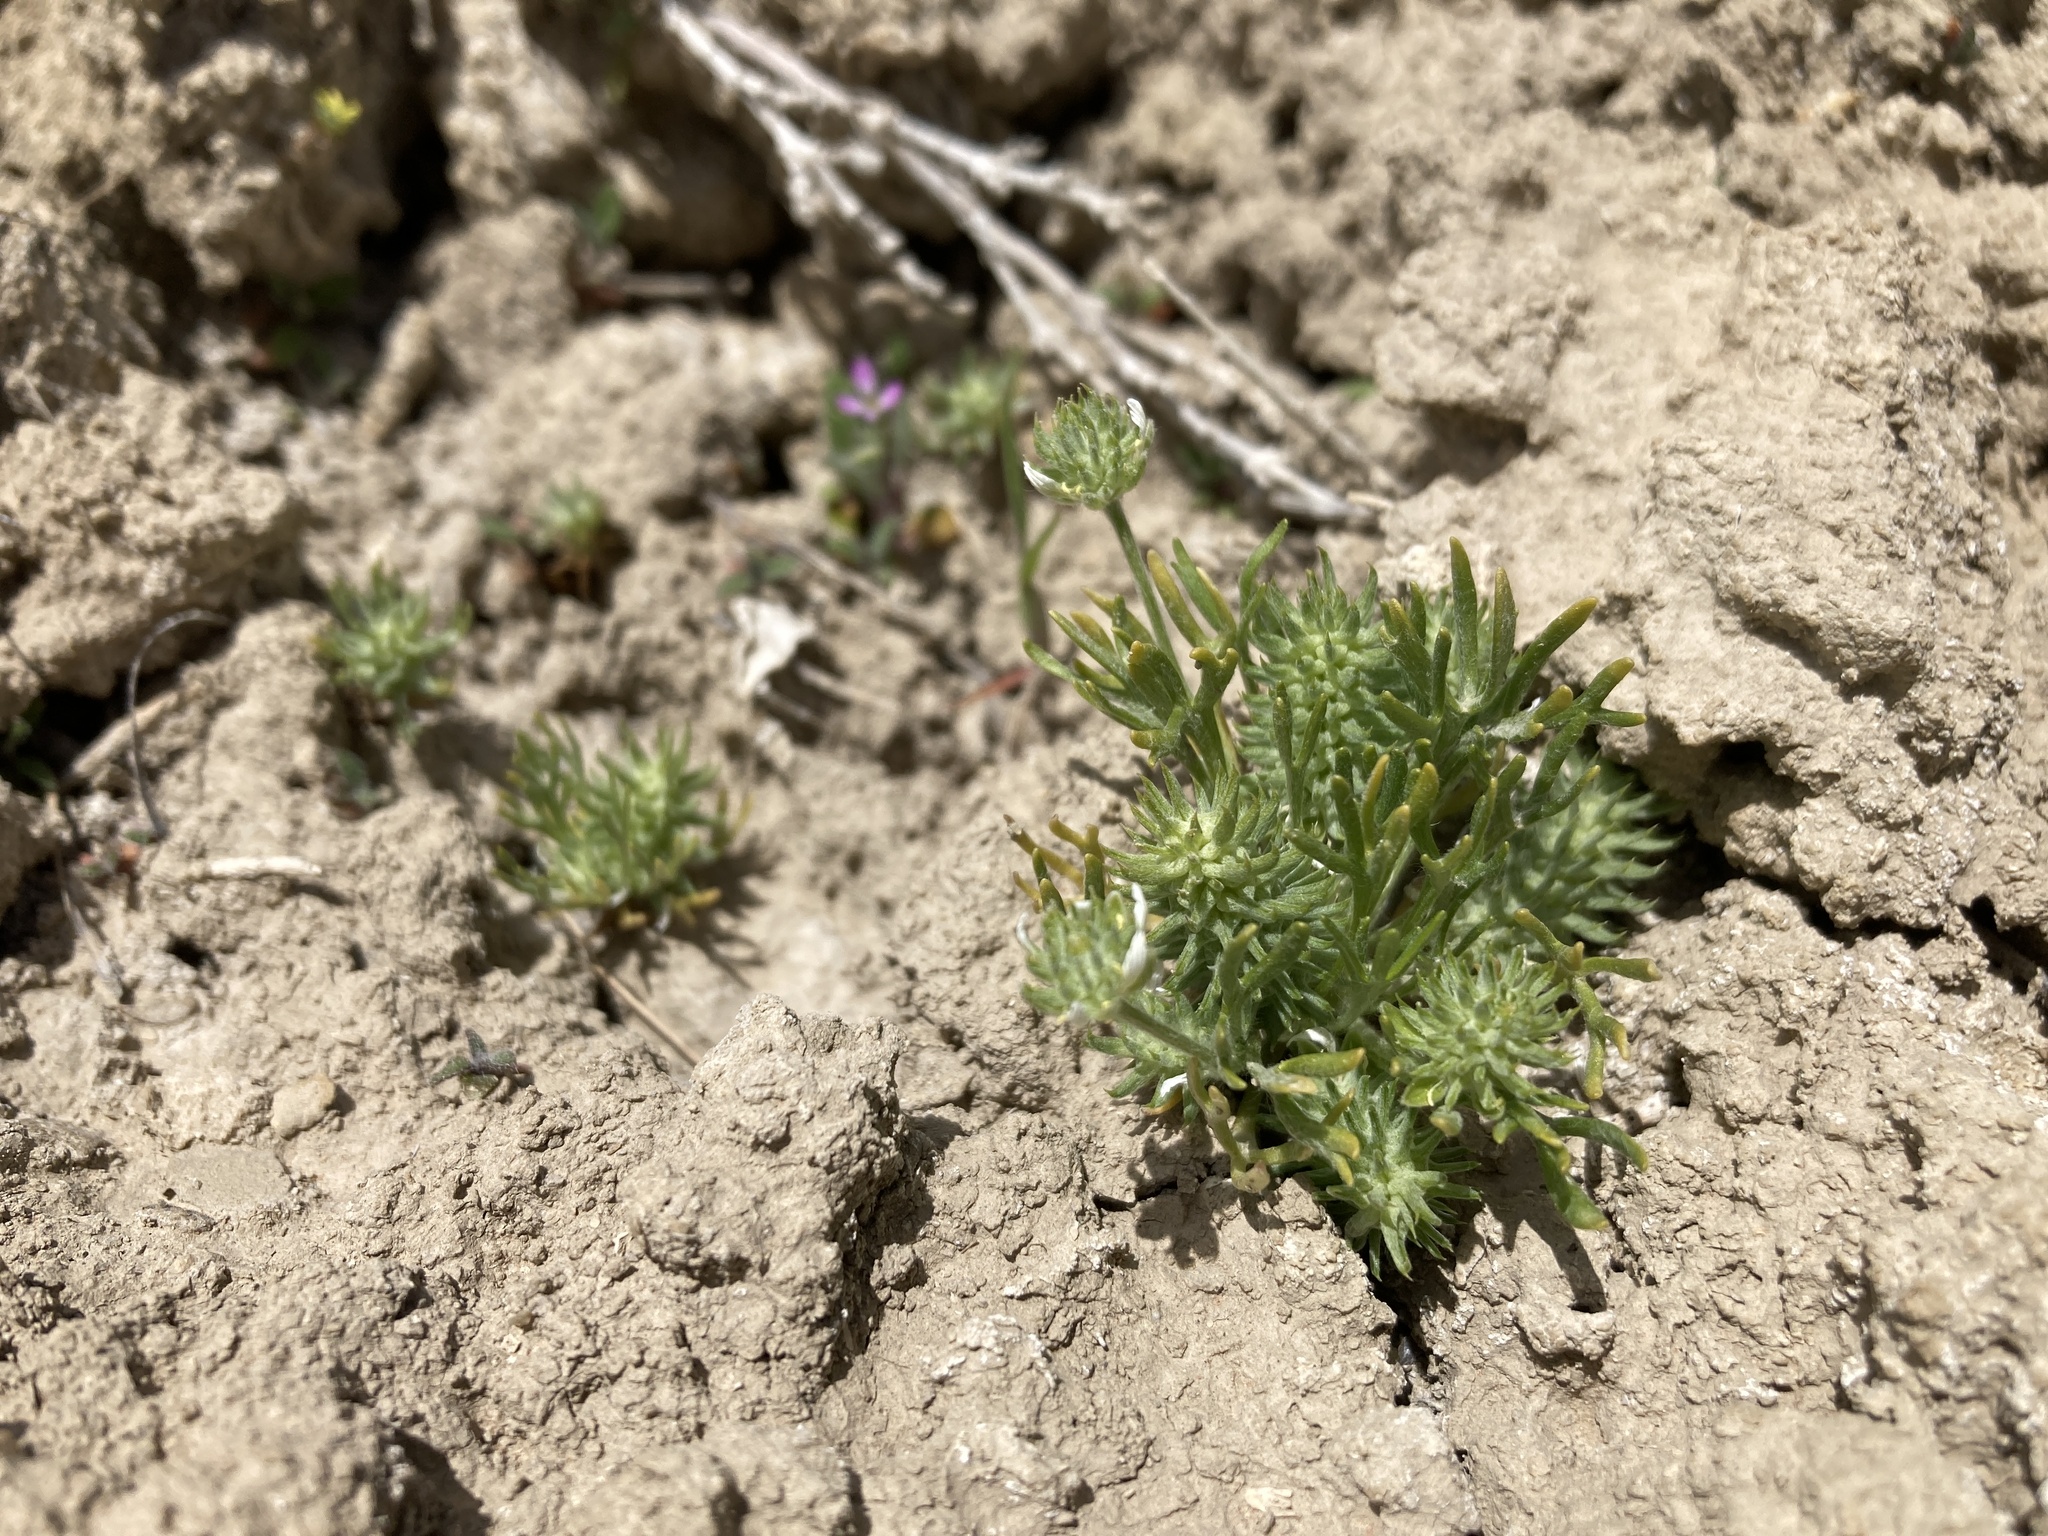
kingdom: Plantae
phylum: Tracheophyta
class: Magnoliopsida
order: Ranunculales
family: Ranunculaceae
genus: Ceratocephala
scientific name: Ceratocephala orthoceras
